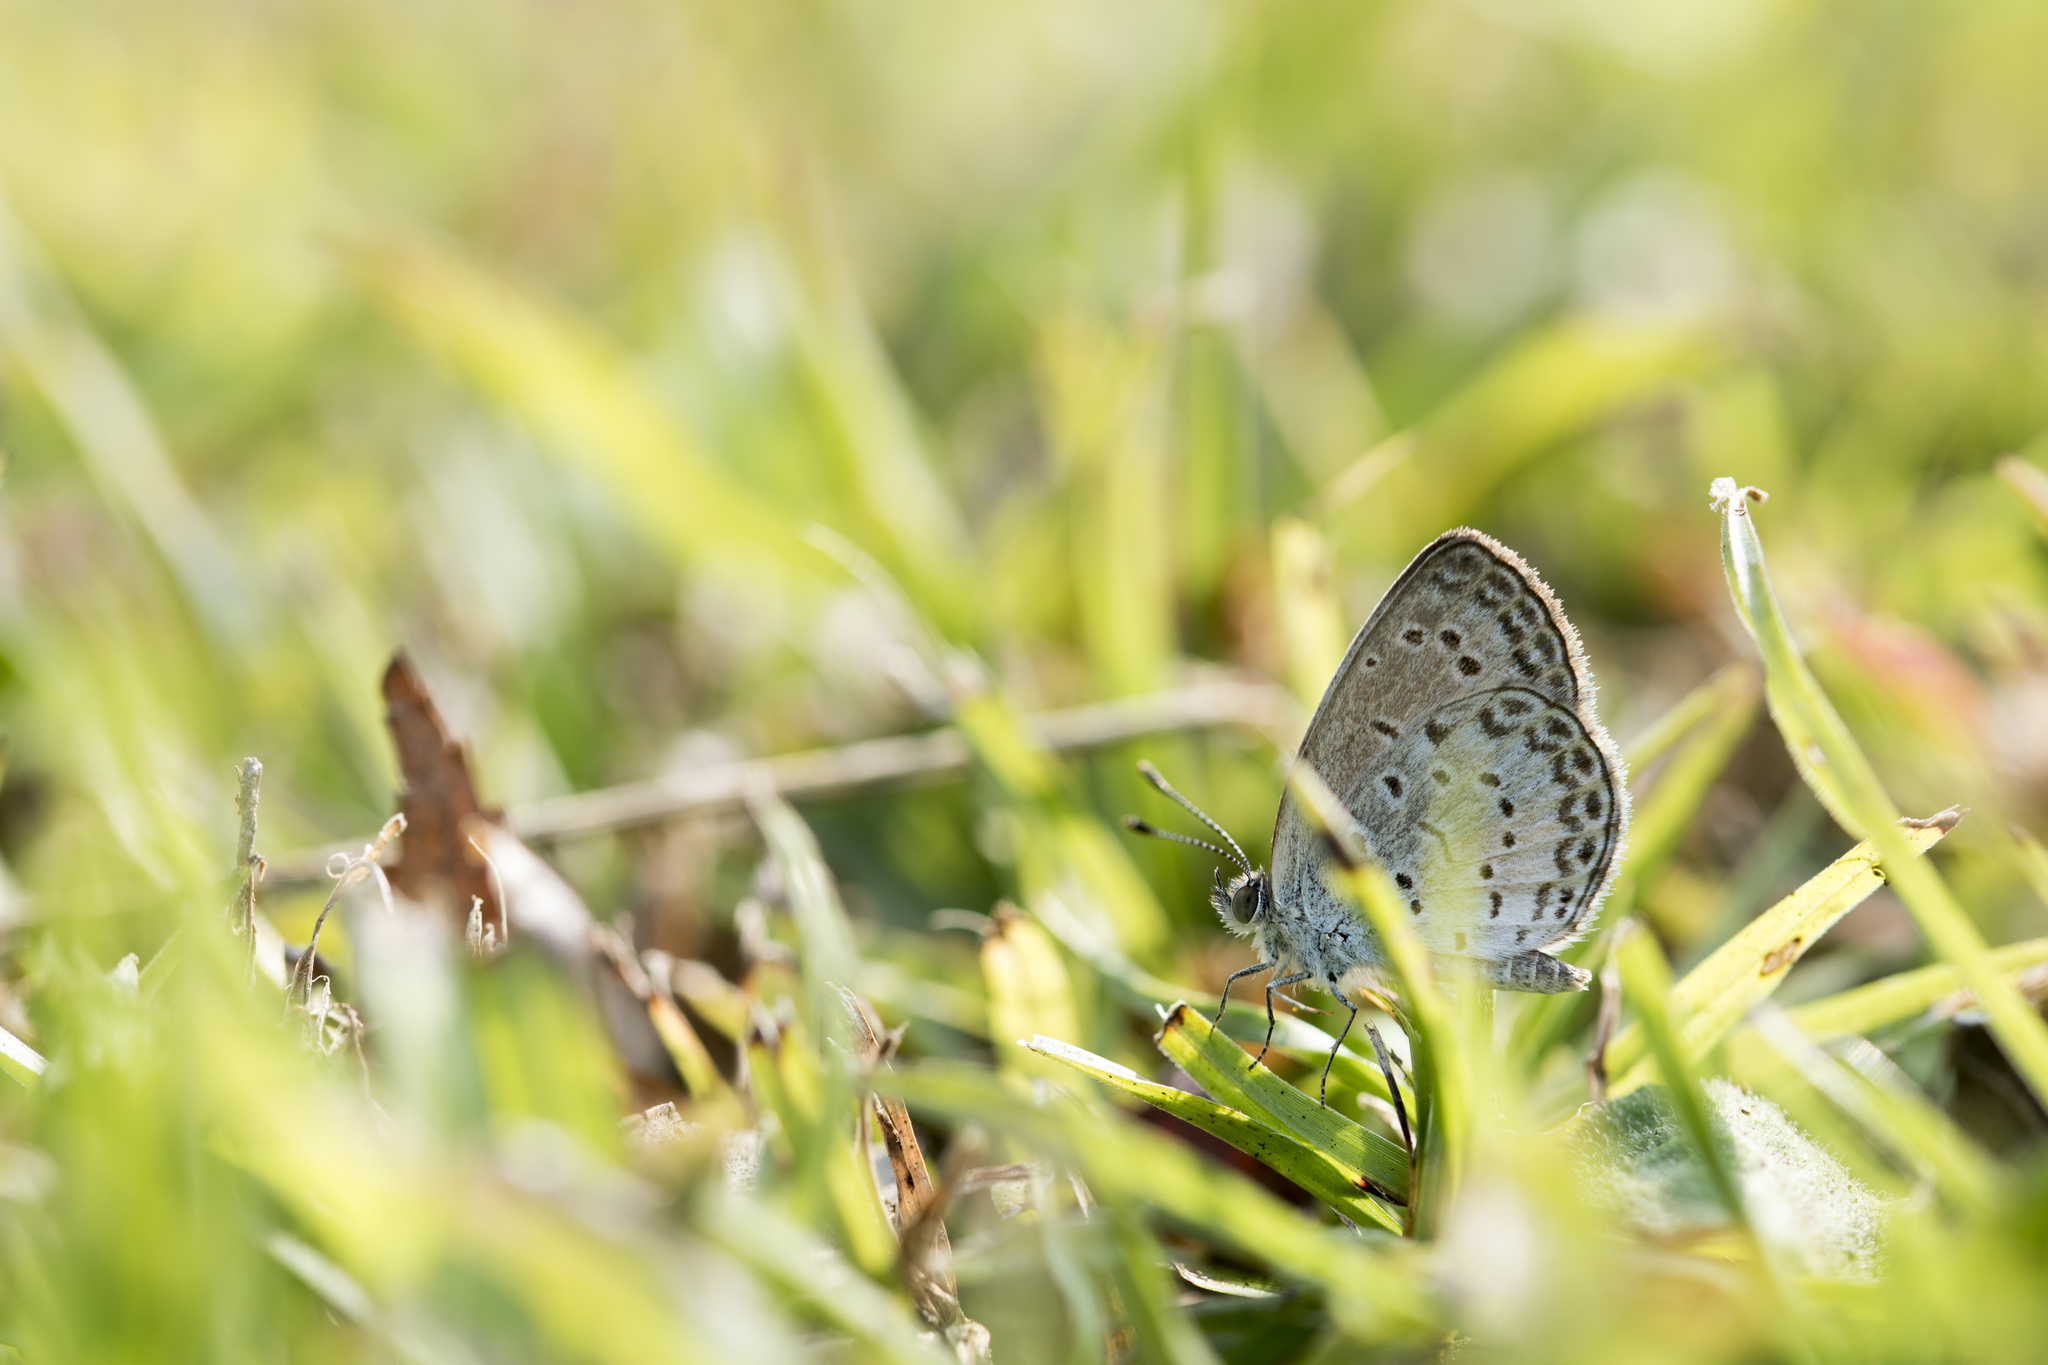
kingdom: Animalia
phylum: Arthropoda
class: Insecta
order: Lepidoptera
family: Lycaenidae
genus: Pseudozizeeria
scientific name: Pseudozizeeria maha
